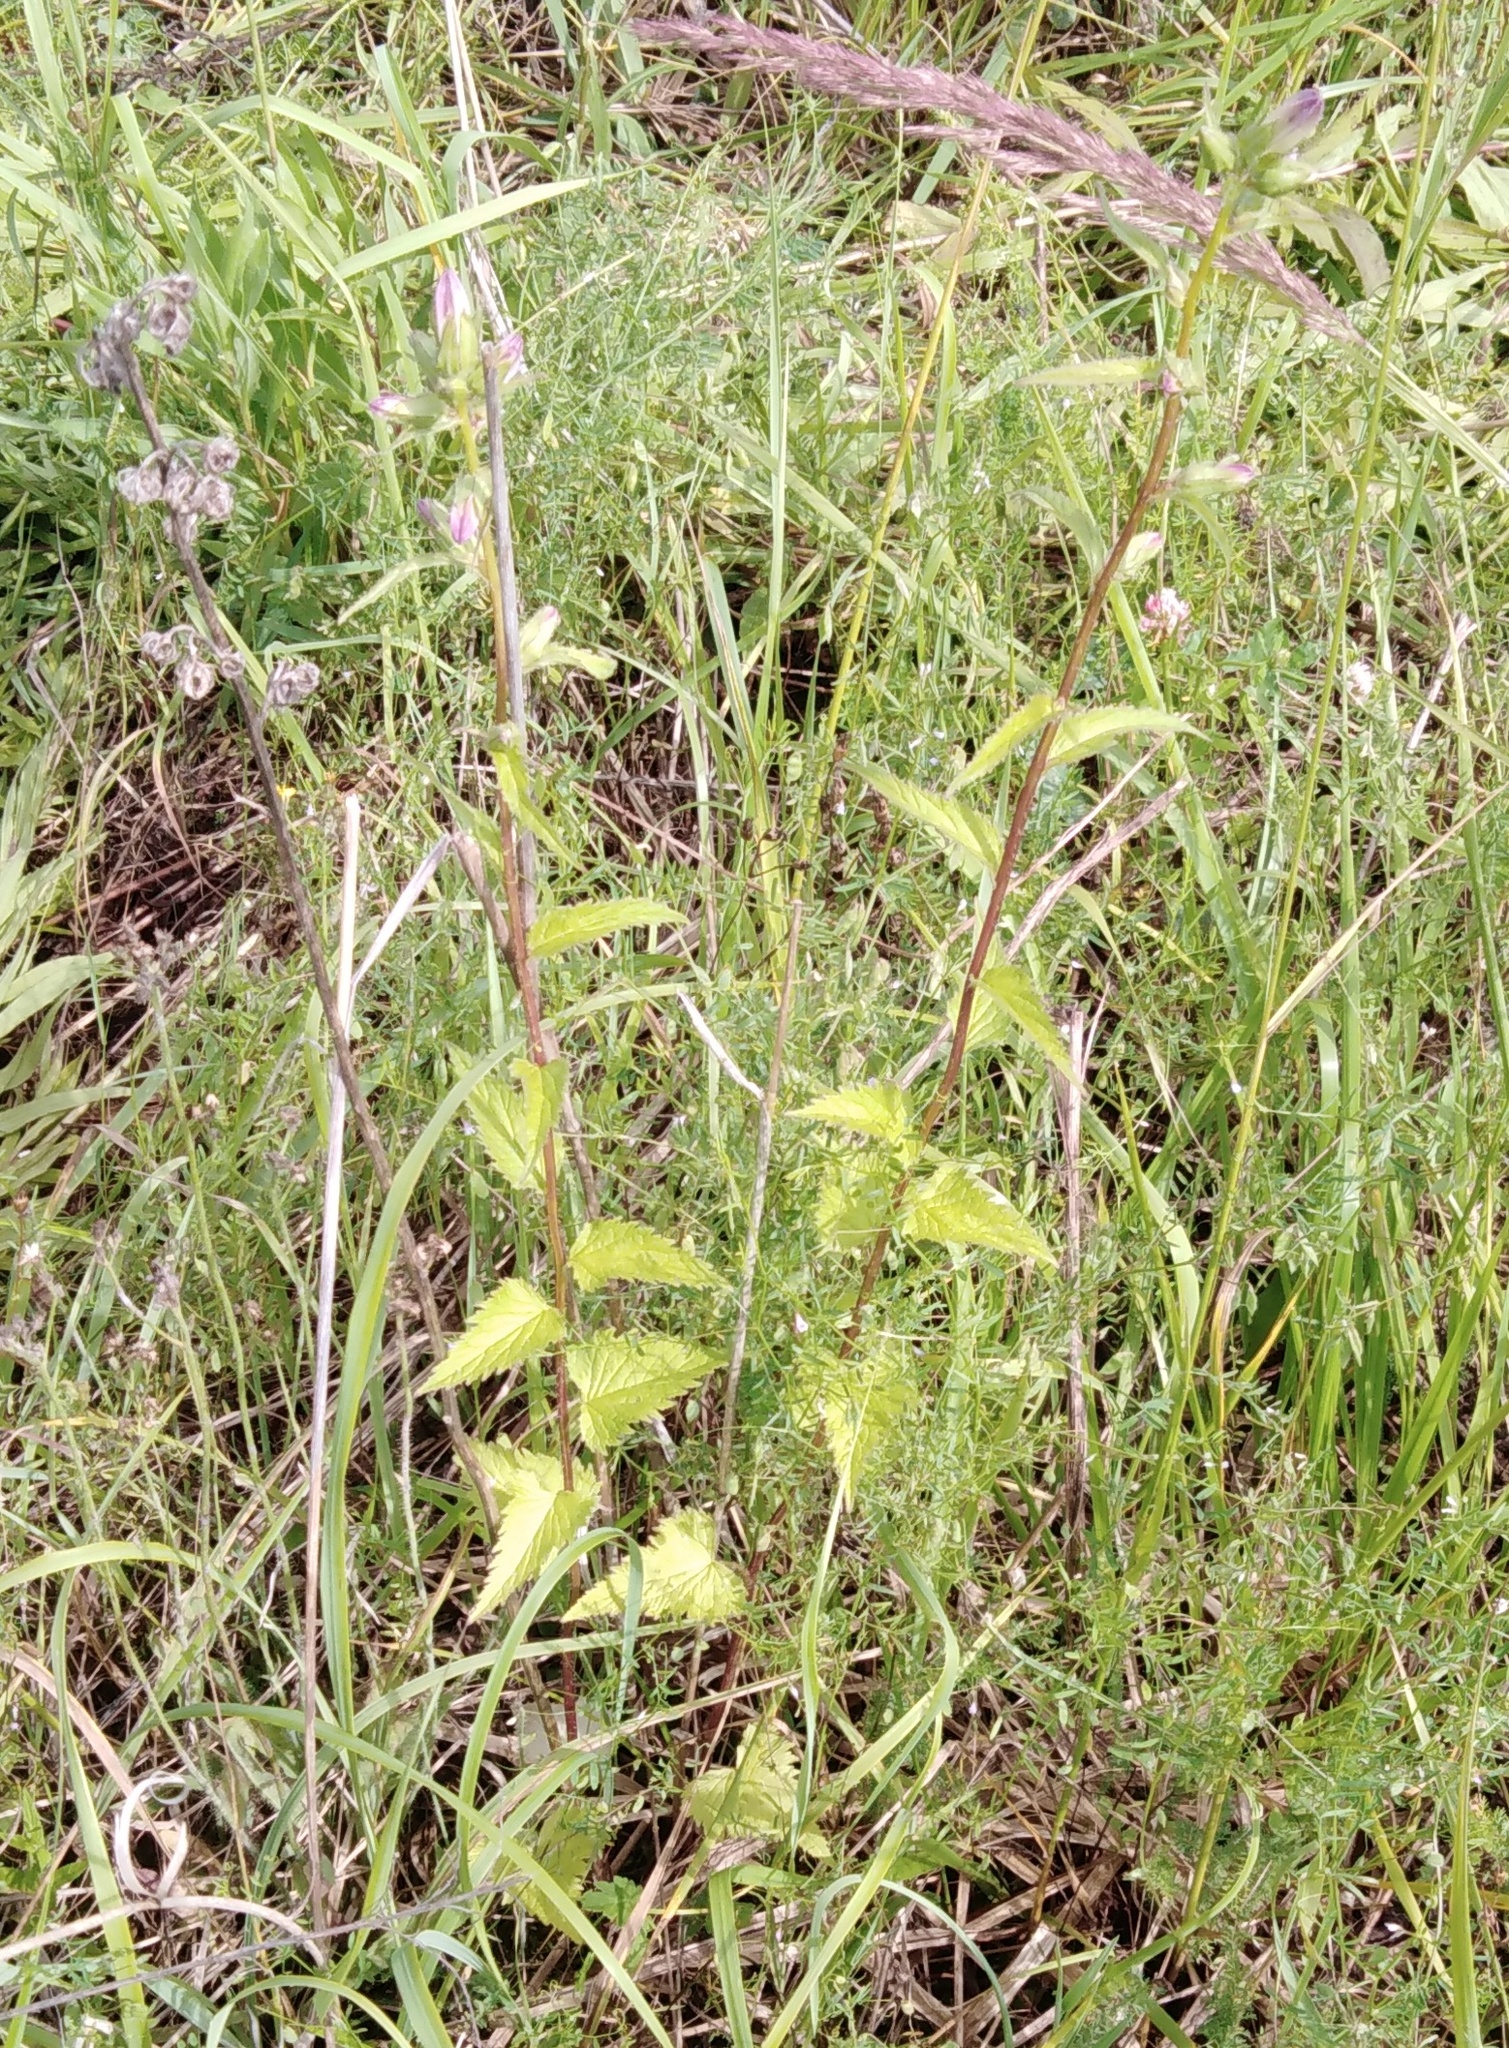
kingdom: Plantae
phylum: Tracheophyta
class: Magnoliopsida
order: Asterales
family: Campanulaceae
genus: Campanula
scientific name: Campanula trachelium
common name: Nettle-leaved bellflower
